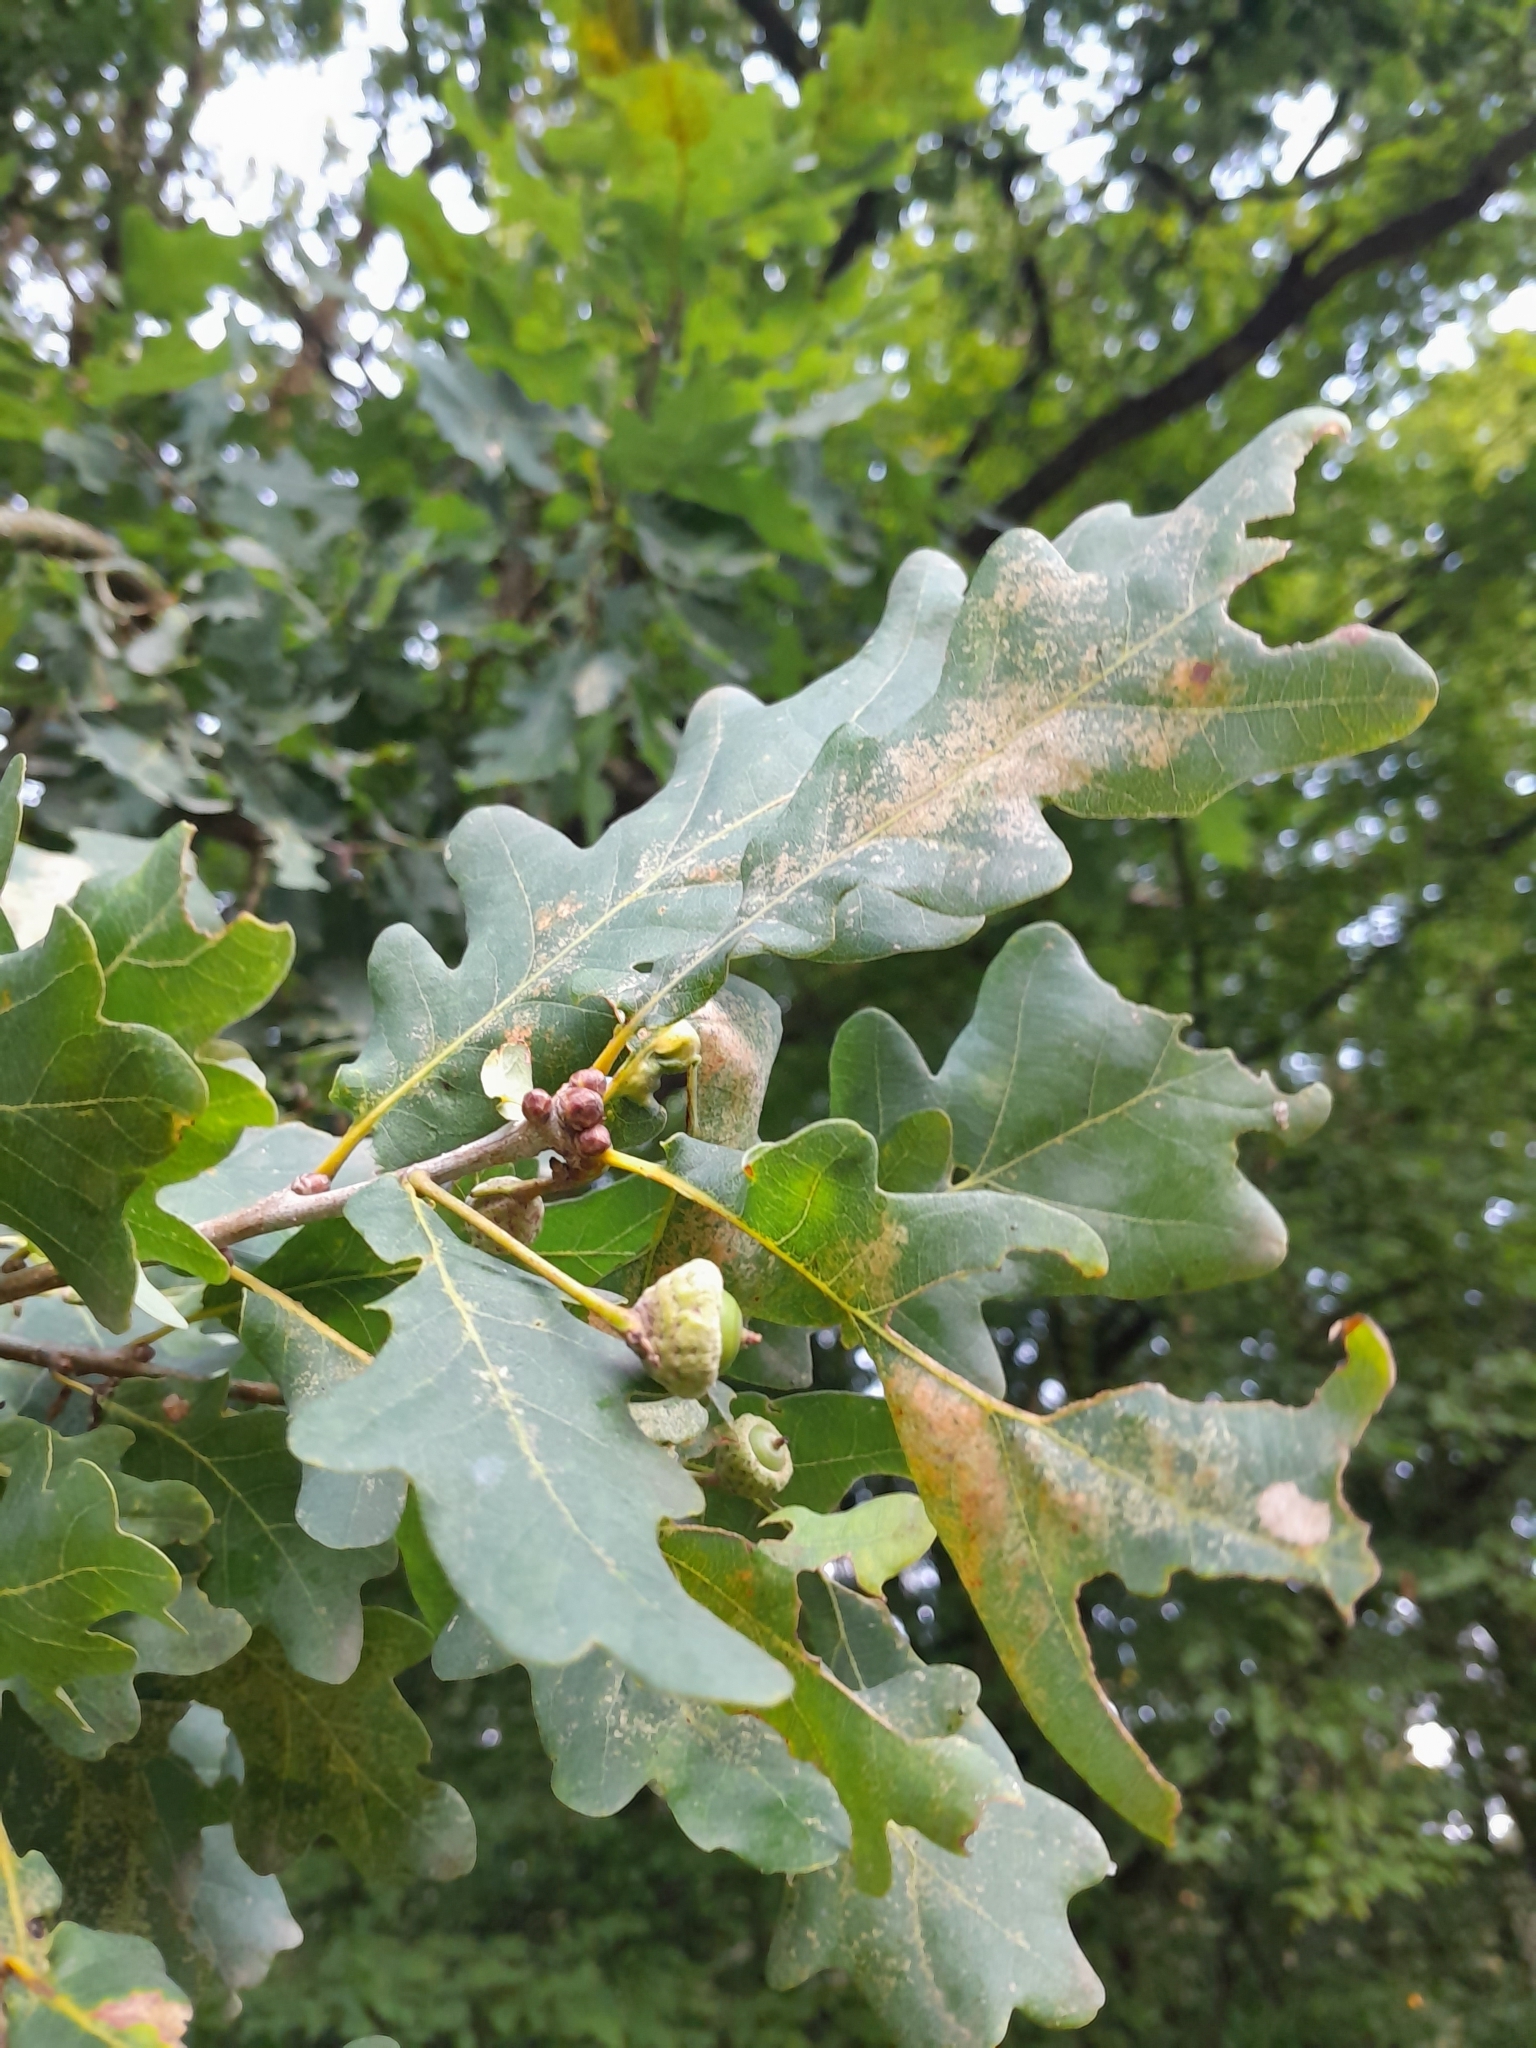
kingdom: Plantae
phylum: Tracheophyta
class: Magnoliopsida
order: Fagales
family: Fagaceae
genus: Quercus
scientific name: Quercus robur
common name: Pedunculate oak
